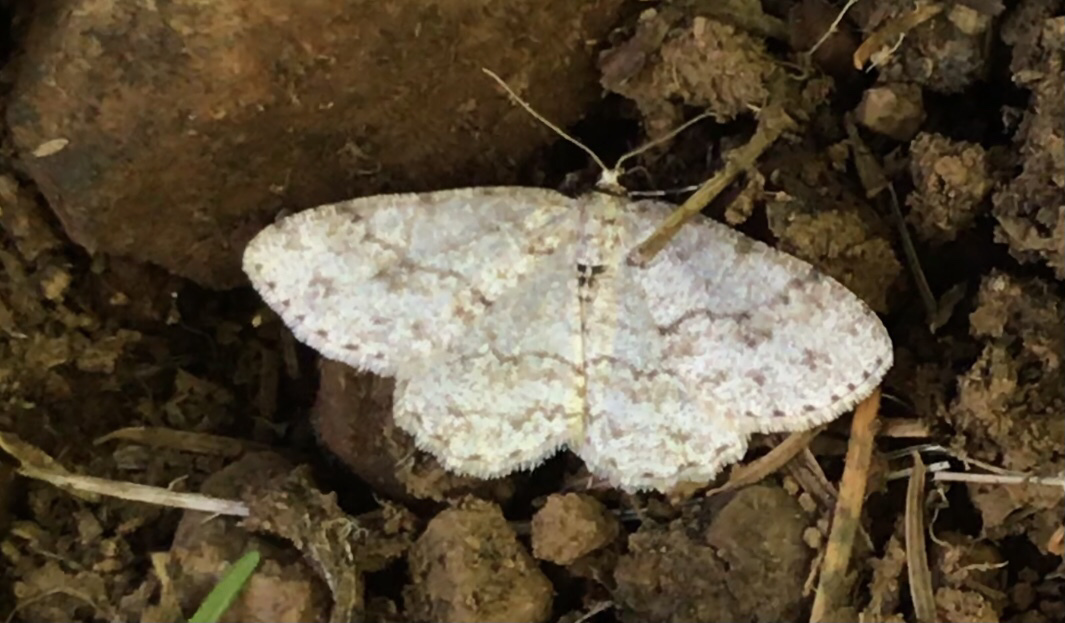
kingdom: Animalia
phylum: Arthropoda
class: Insecta
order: Lepidoptera
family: Geometridae
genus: Ectropis
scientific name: Ectropis crepuscularia
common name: Engrailed
